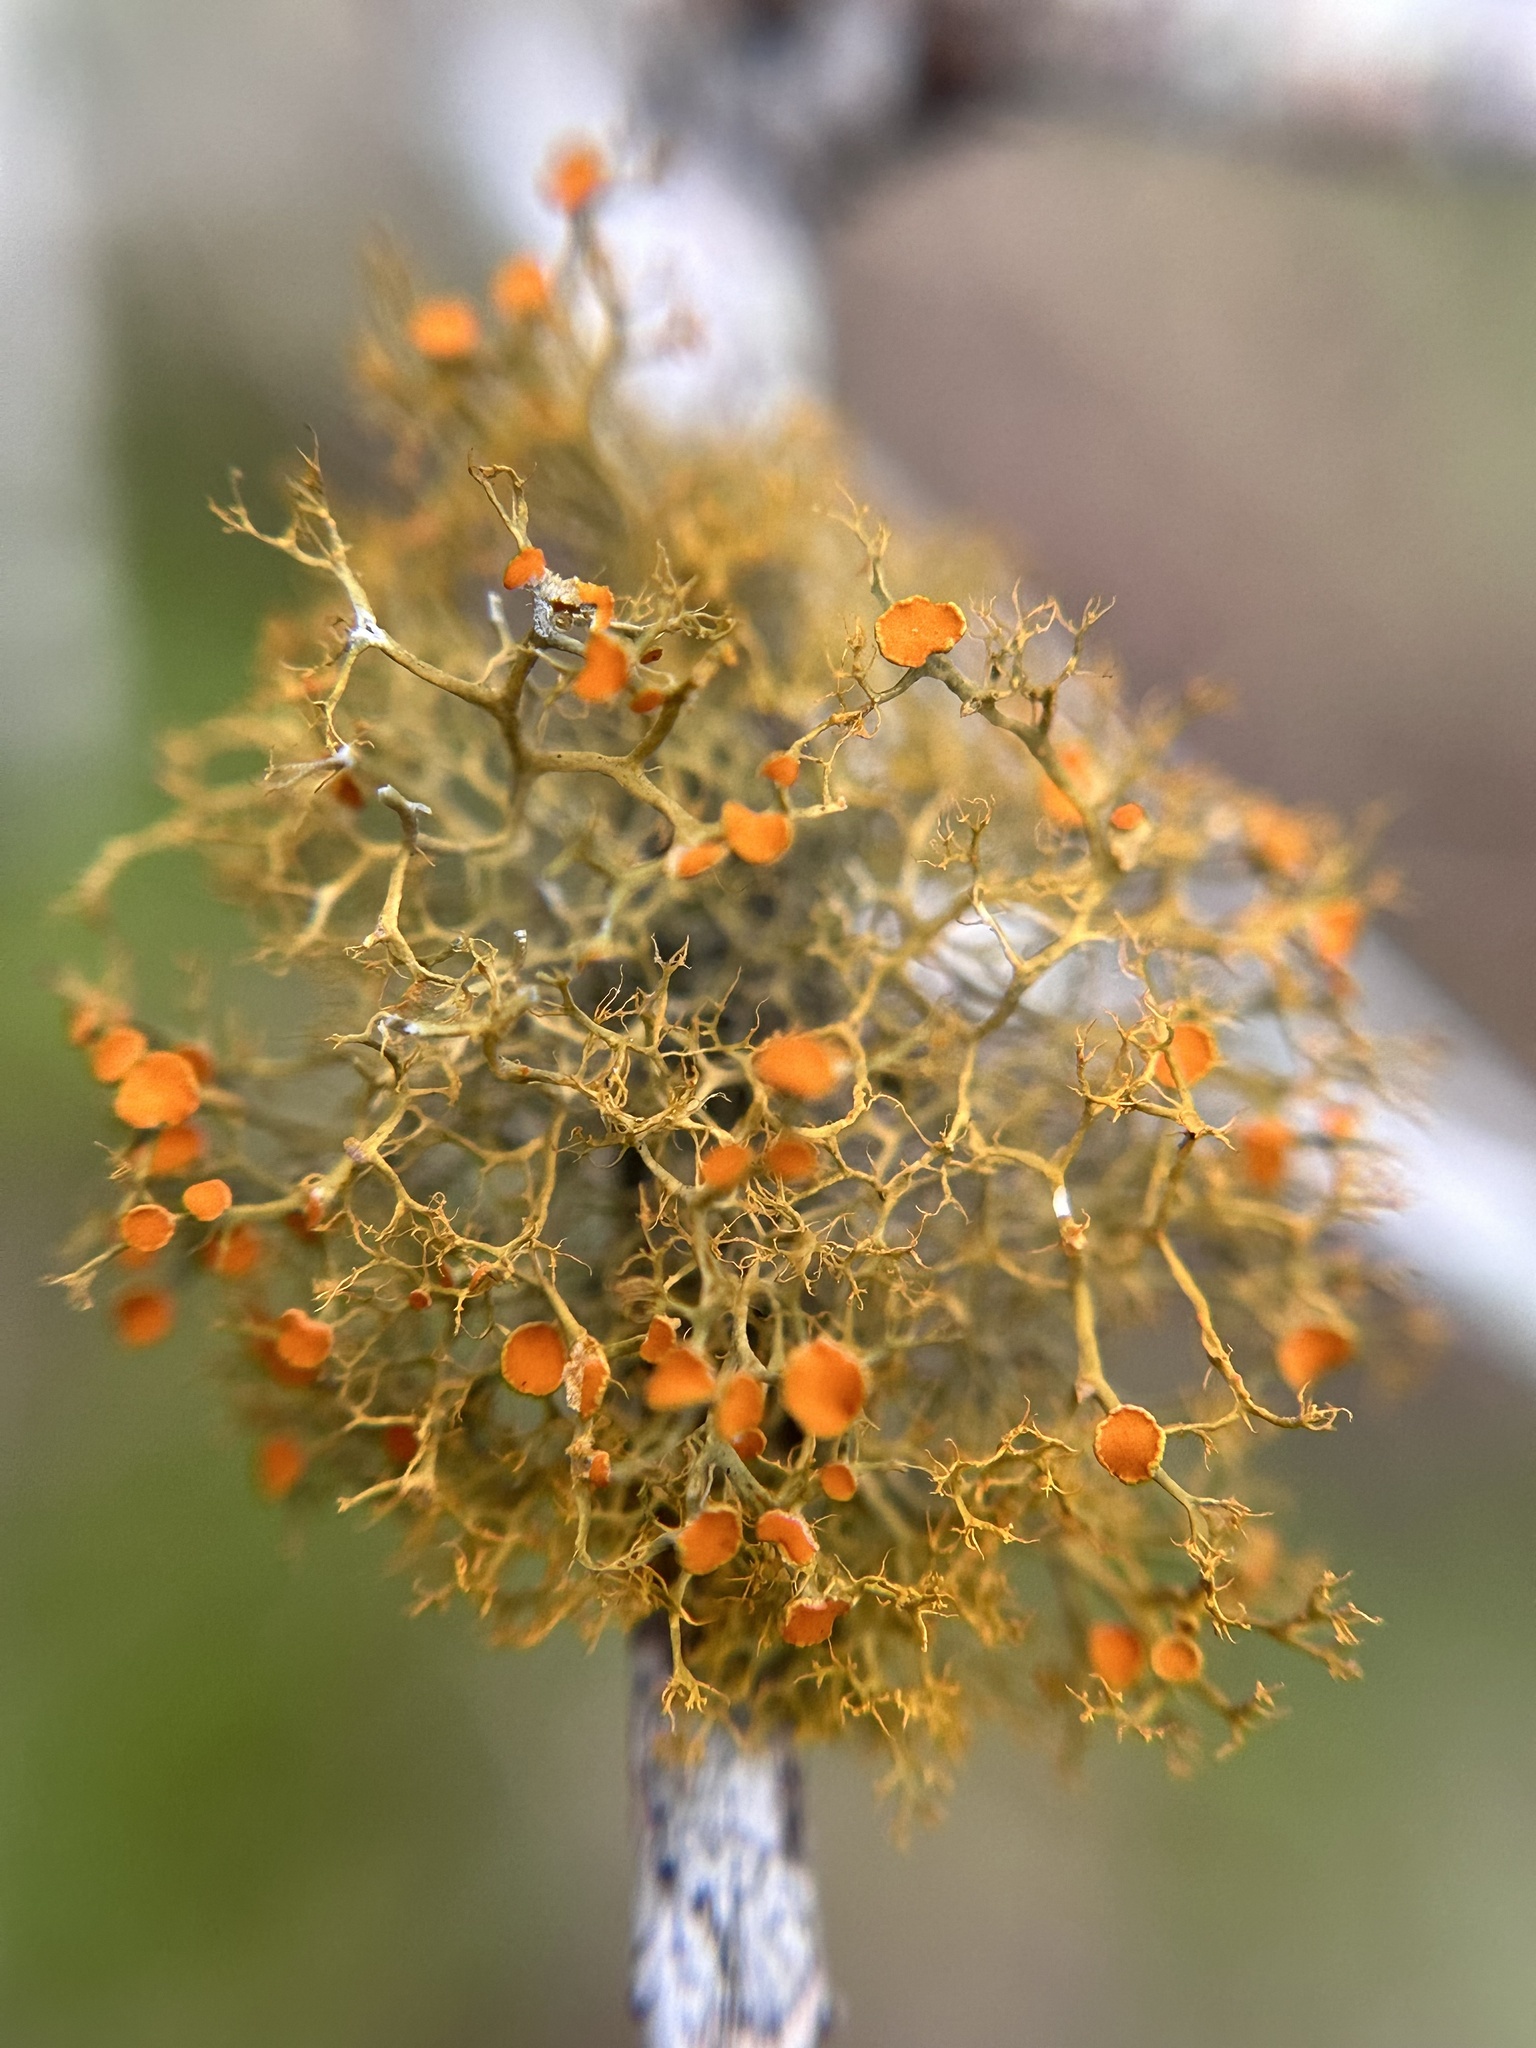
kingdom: Fungi
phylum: Ascomycota
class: Lecanoromycetes
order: Teloschistales
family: Teloschistaceae
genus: Teloschistes
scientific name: Teloschistes exilis
